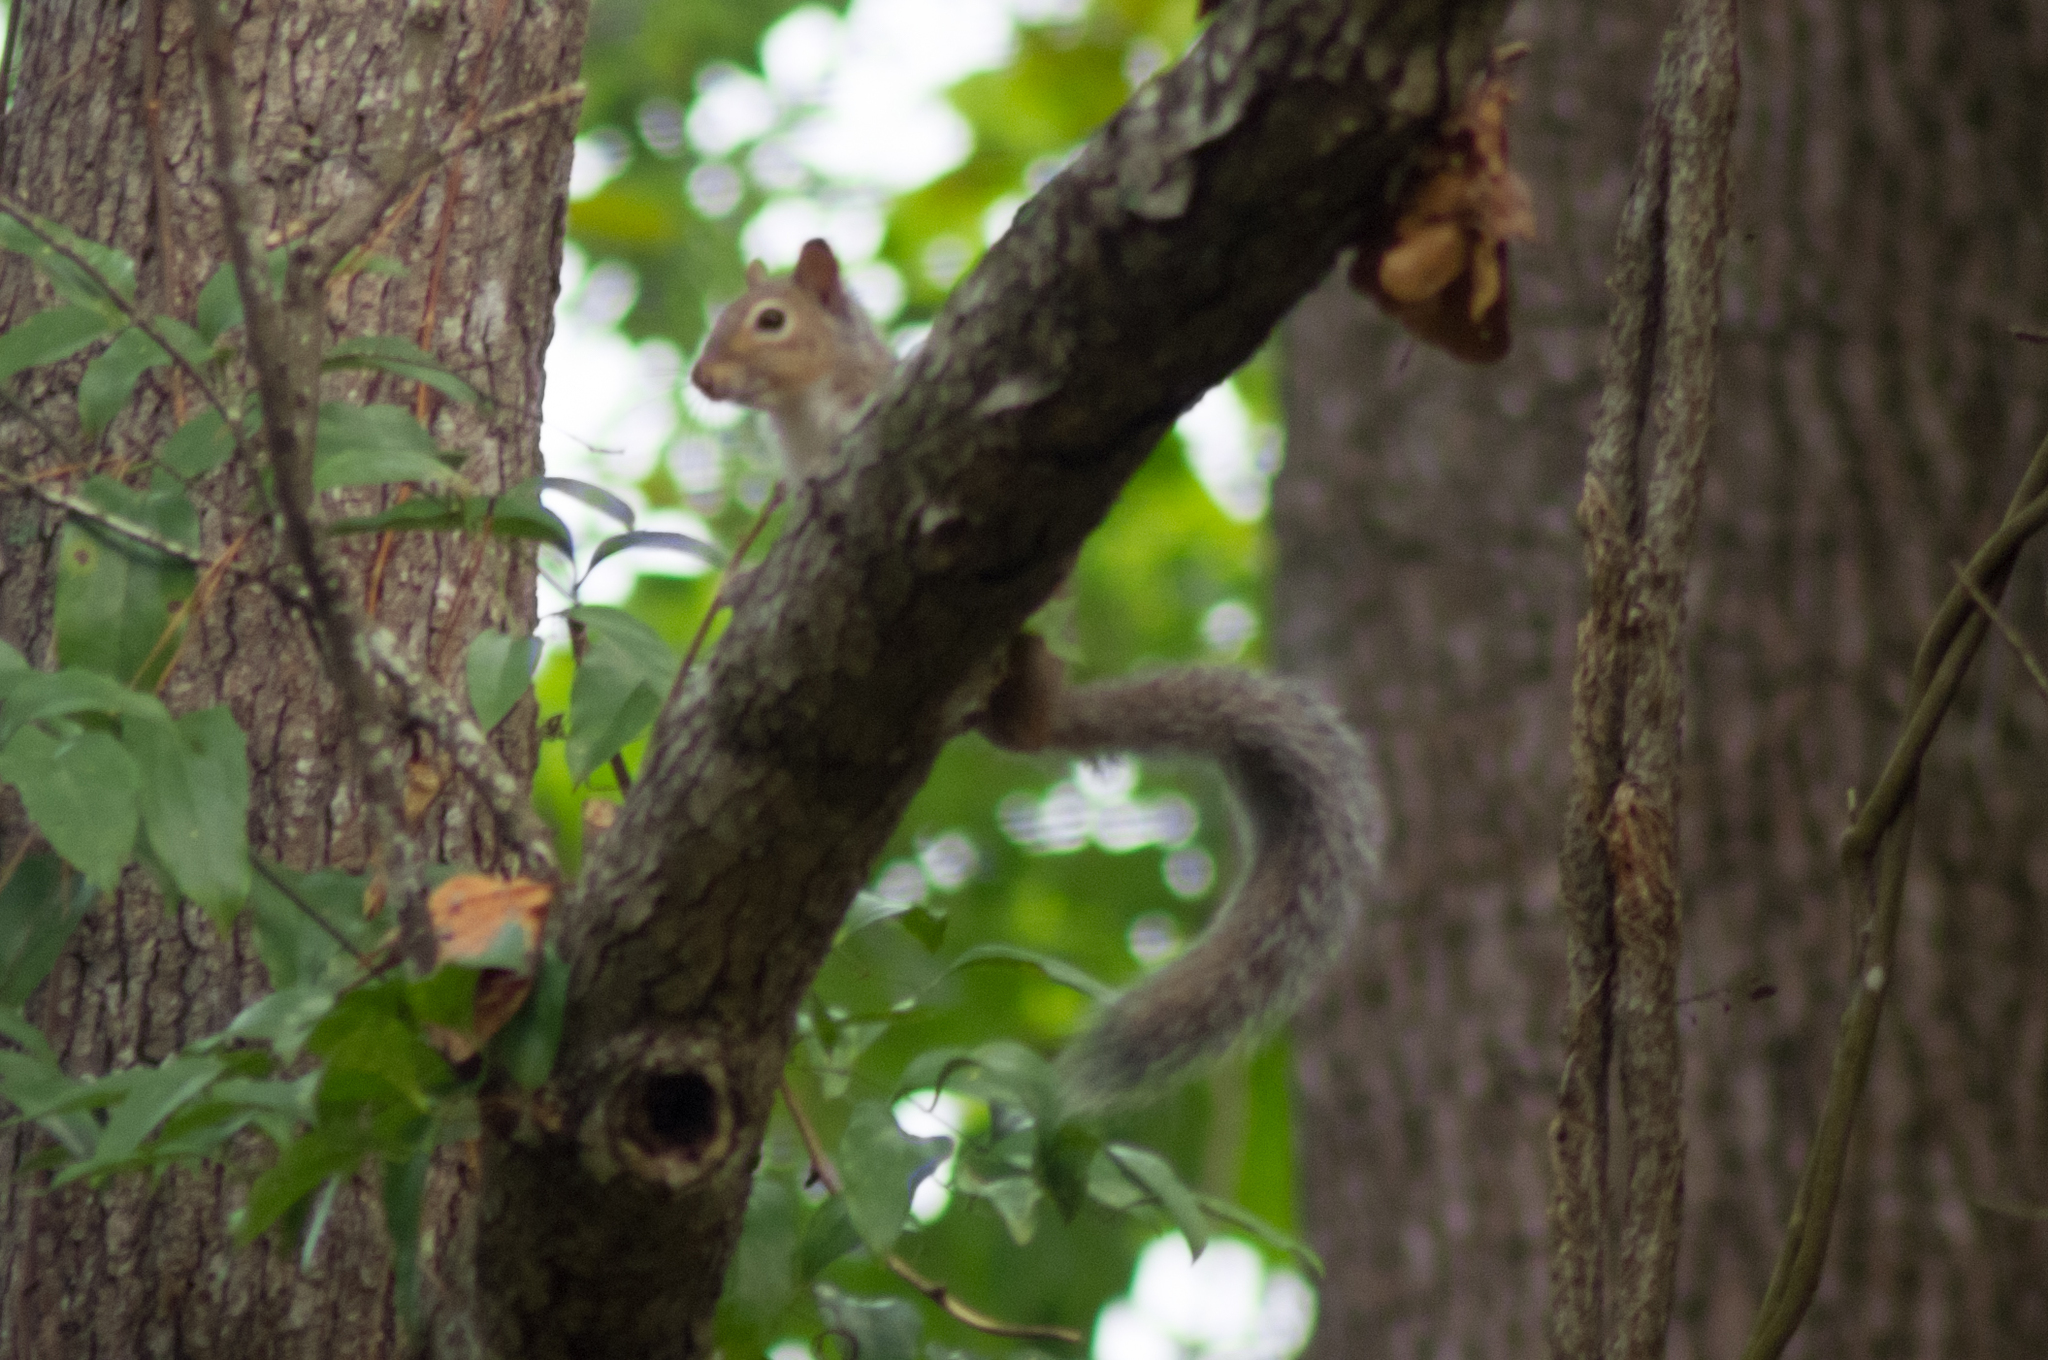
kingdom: Animalia
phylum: Chordata
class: Mammalia
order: Rodentia
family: Sciuridae
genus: Sciurus
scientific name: Sciurus carolinensis
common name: Eastern gray squirrel
